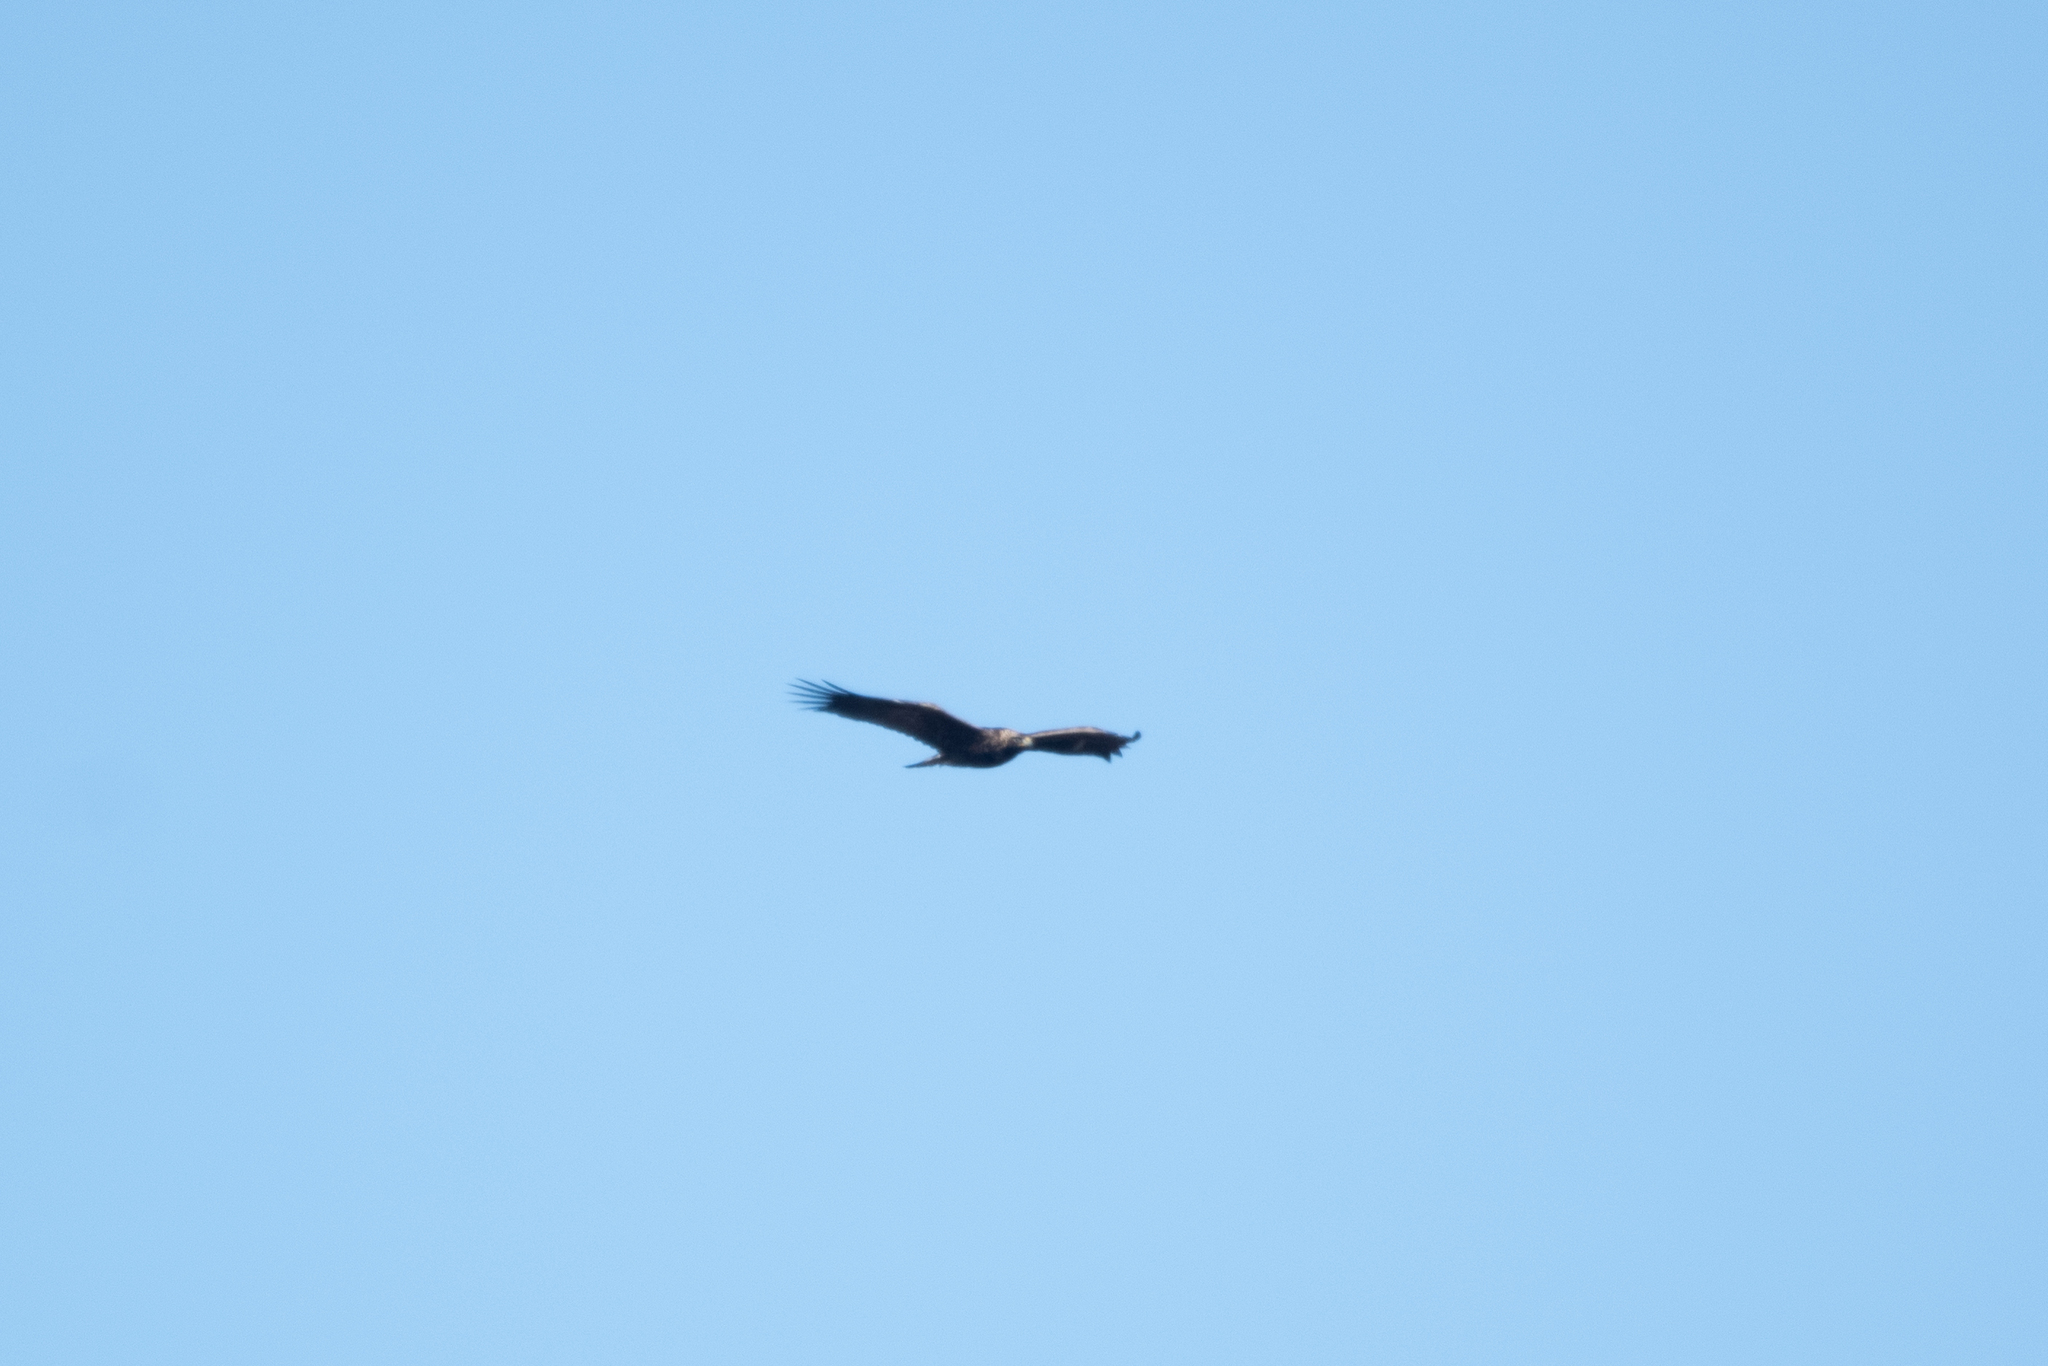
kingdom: Animalia
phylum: Chordata
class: Aves
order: Accipitriformes
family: Accipitridae
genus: Aquila
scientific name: Aquila chrysaetos
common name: Golden eagle
